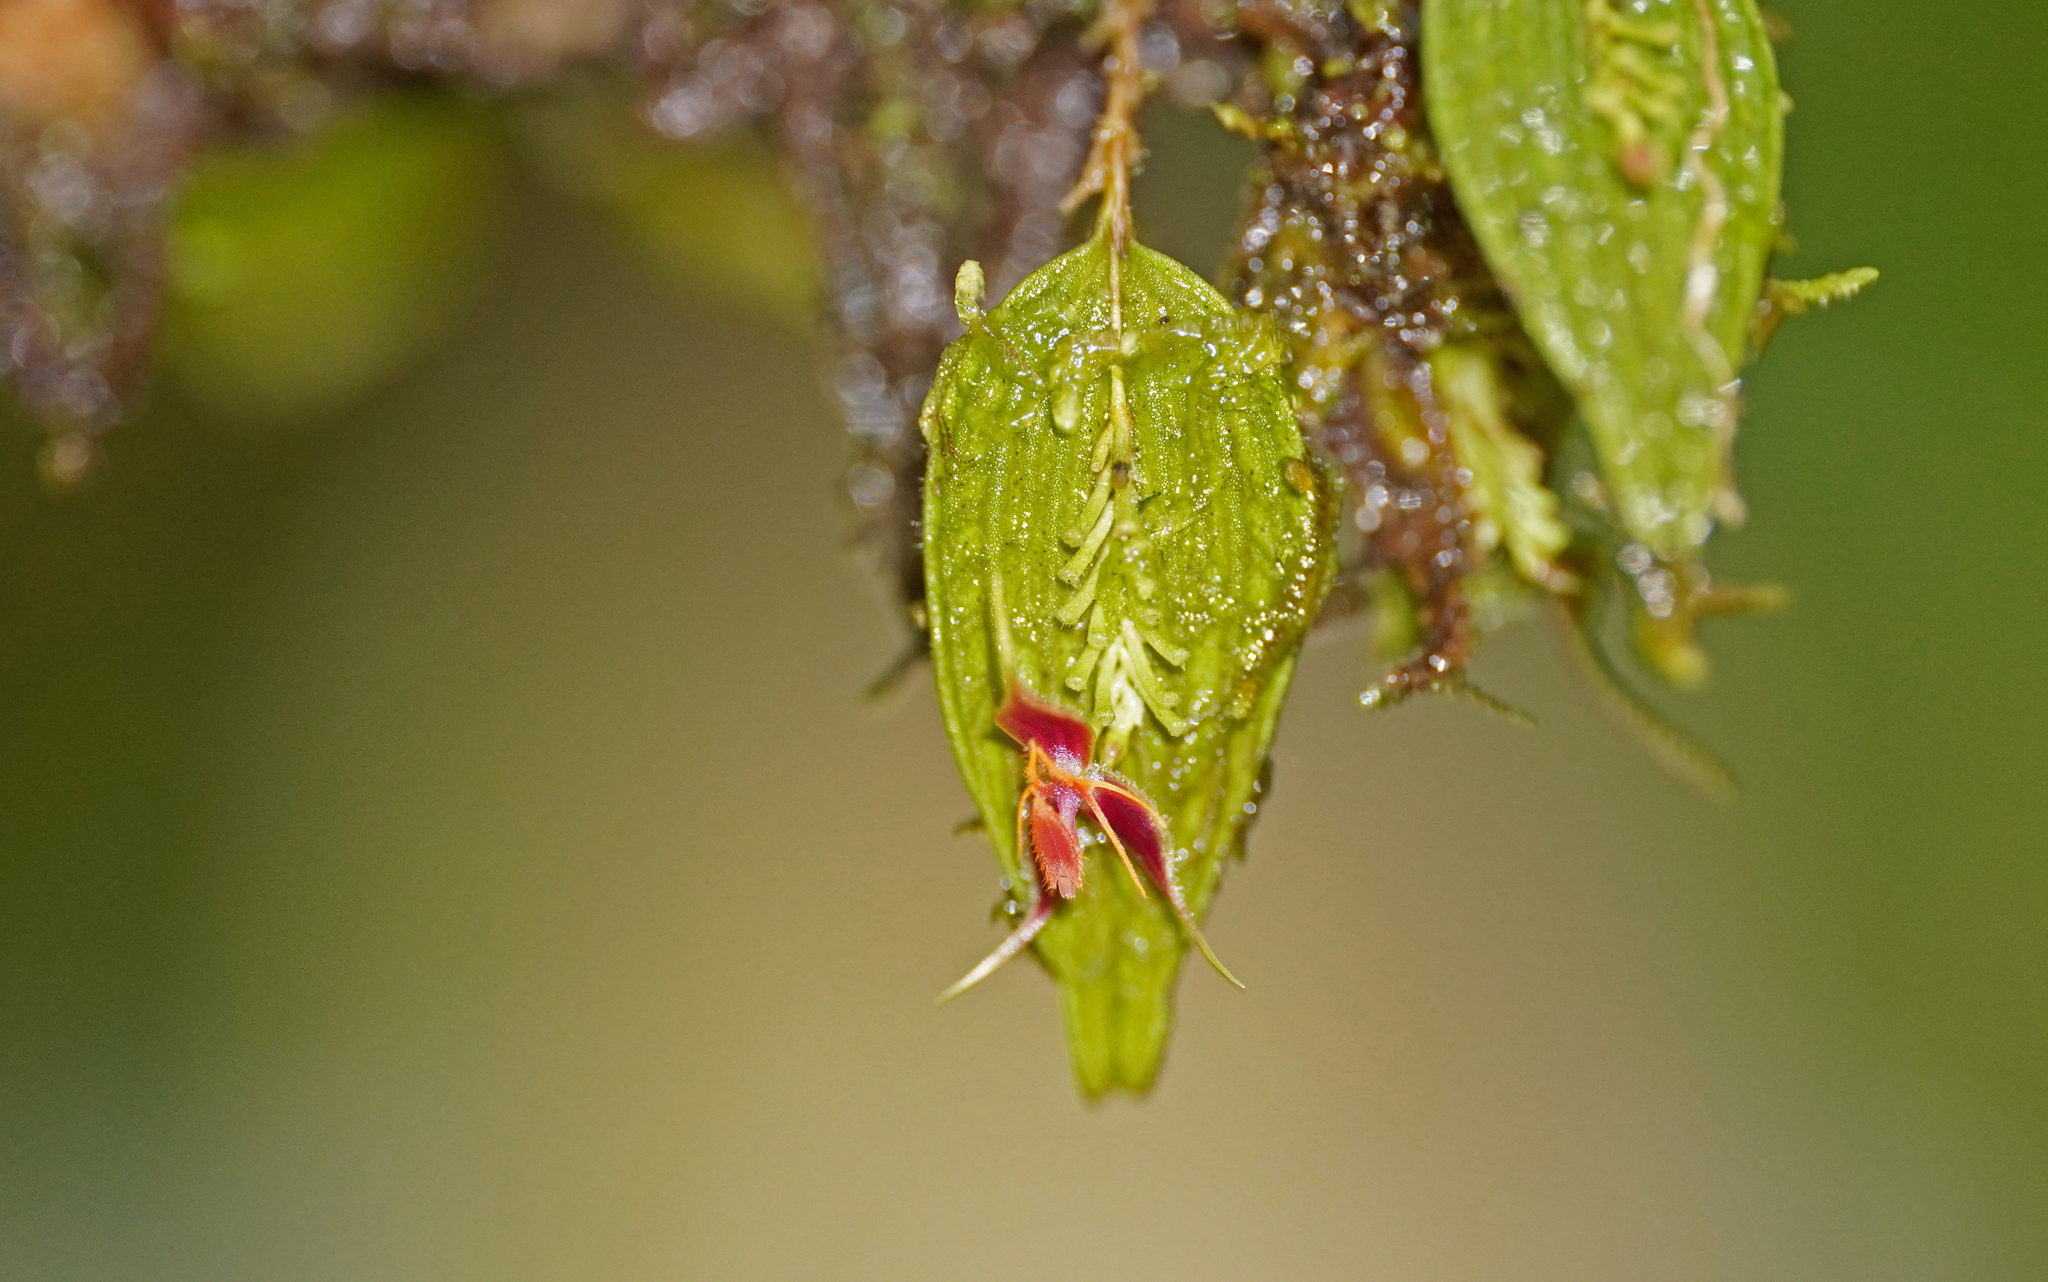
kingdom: Plantae
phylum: Tracheophyta
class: Liliopsida
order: Asparagales
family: Orchidaceae
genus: Lepanthes
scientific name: Lepanthes hexapus
